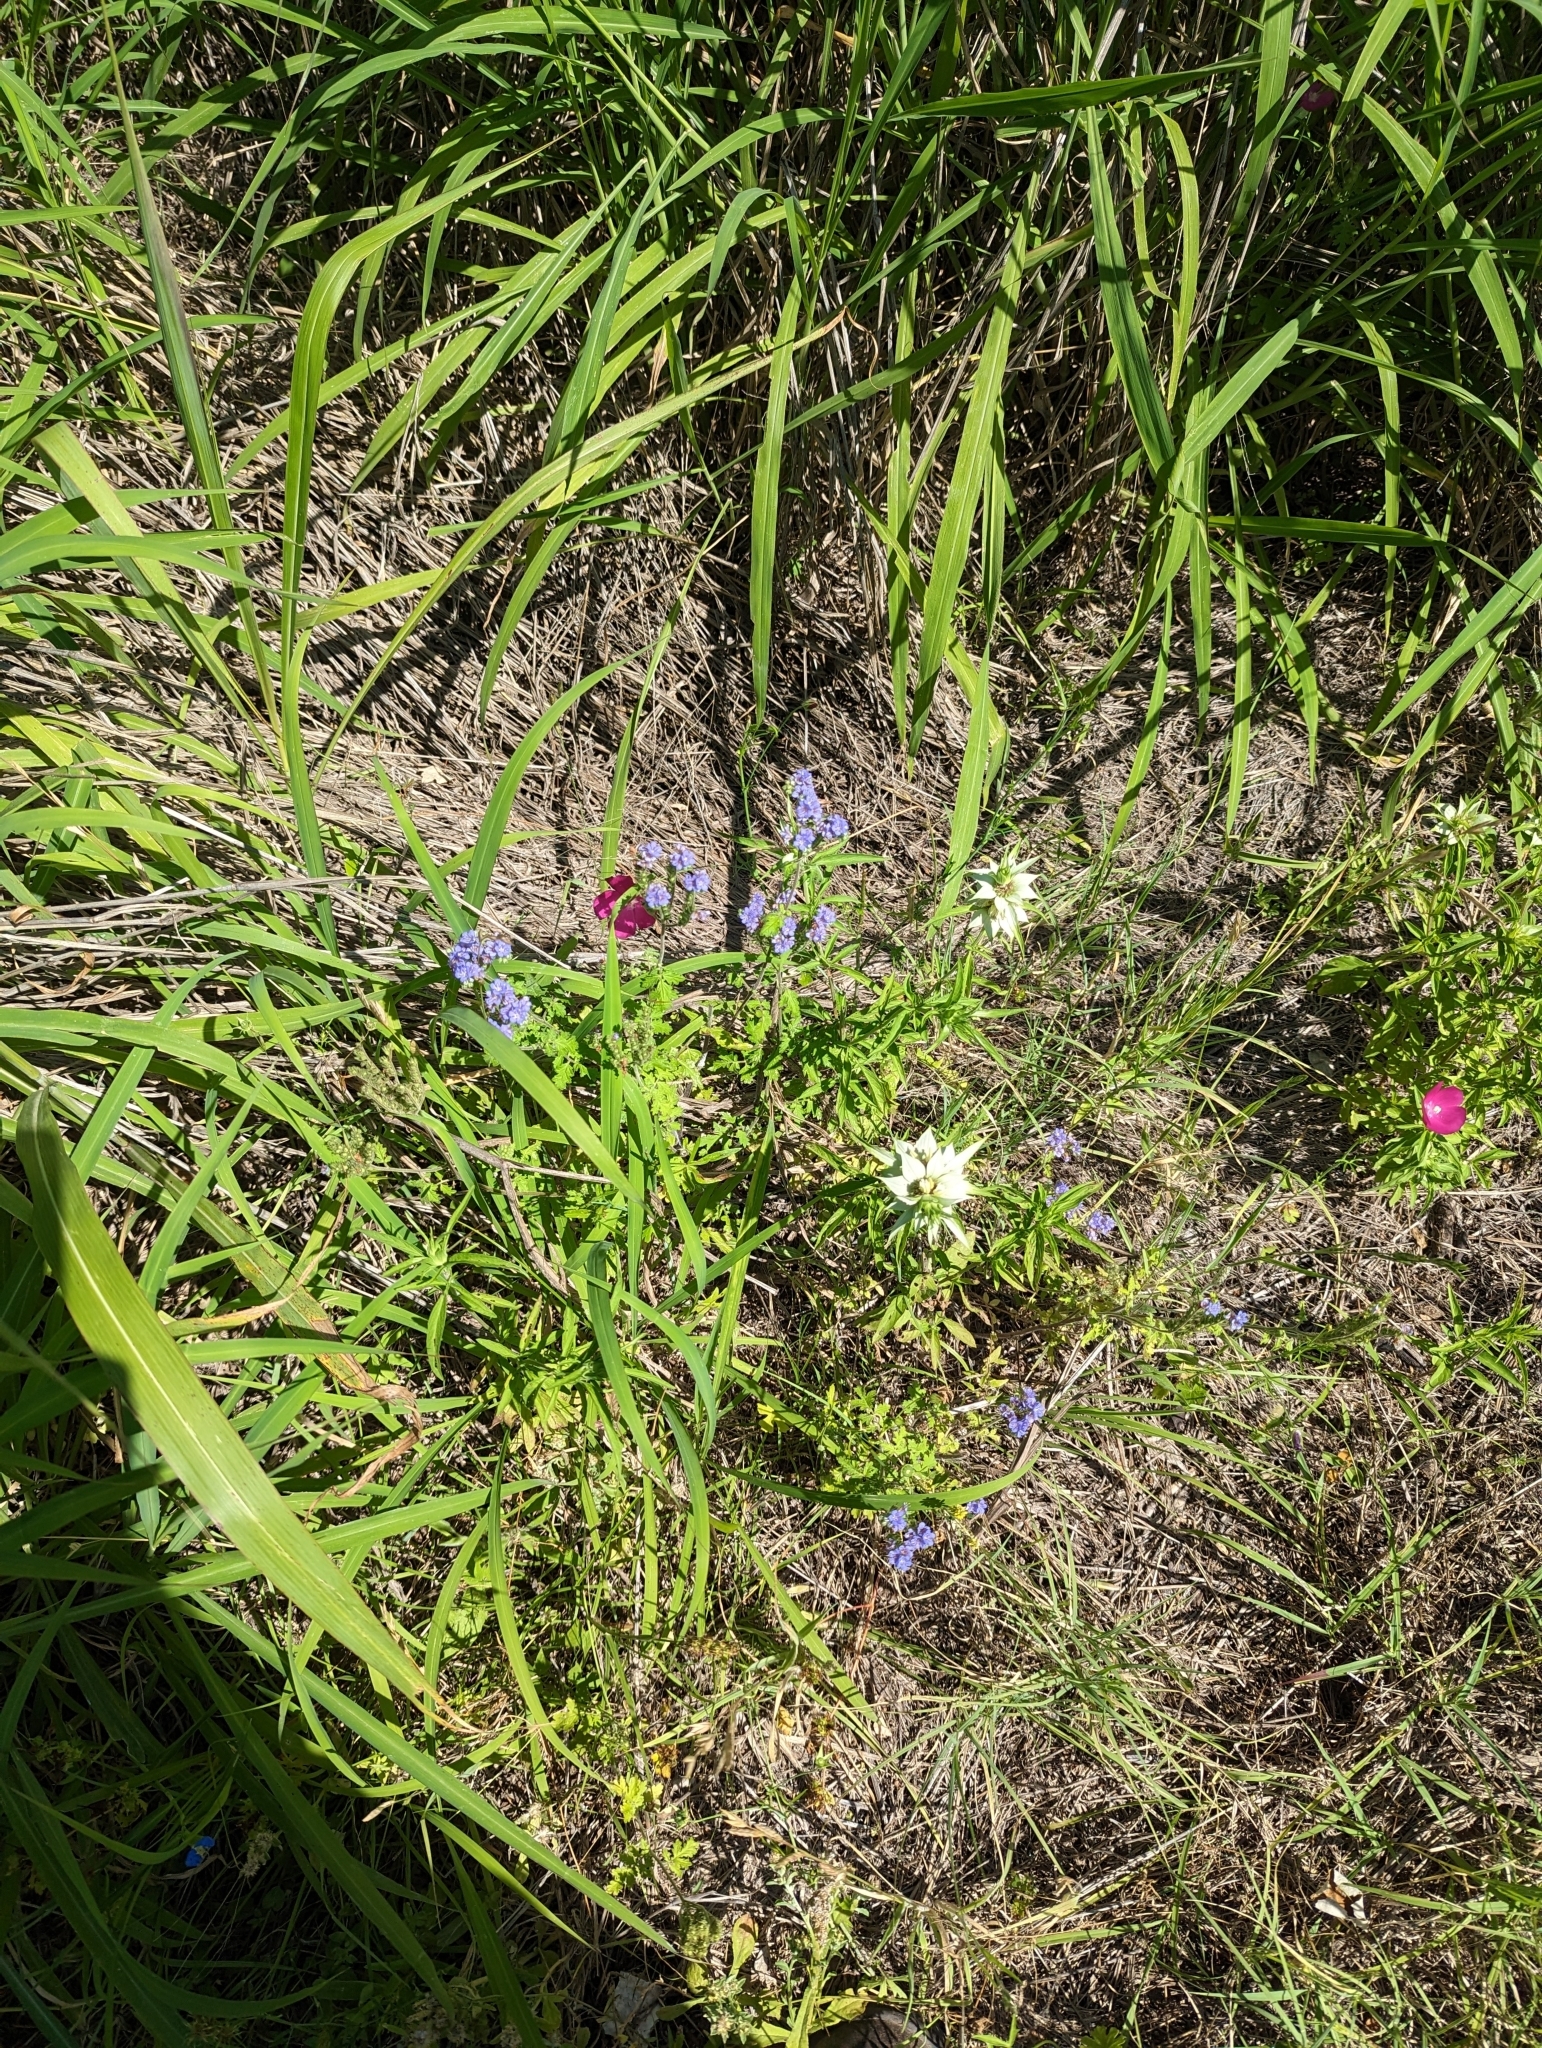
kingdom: Plantae
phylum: Tracheophyta
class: Magnoliopsida
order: Boraginales
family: Hydrophyllaceae
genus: Phacelia
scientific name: Phacelia congesta
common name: Blue curls
